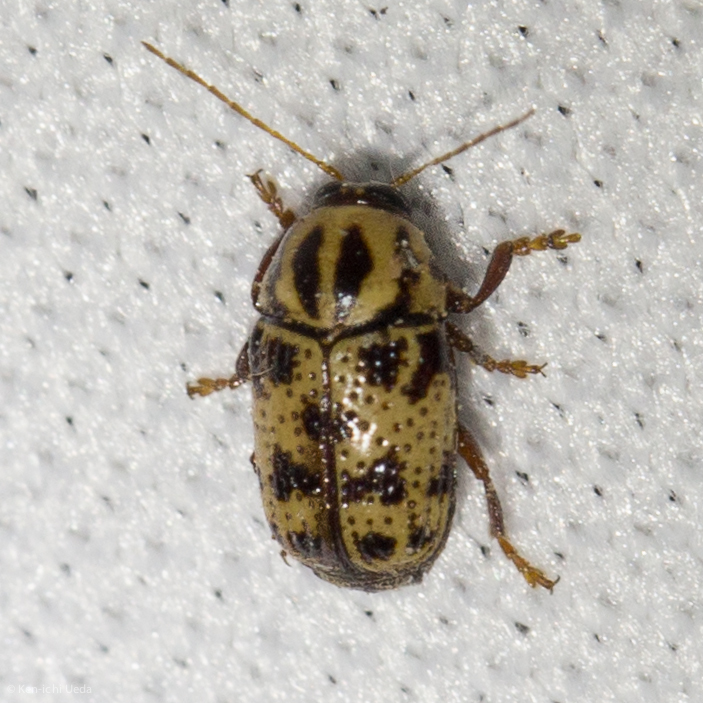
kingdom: Animalia
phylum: Arthropoda
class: Insecta
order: Coleoptera
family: Chrysomelidae
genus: Cryptocephalus
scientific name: Cryptocephalus maccus
